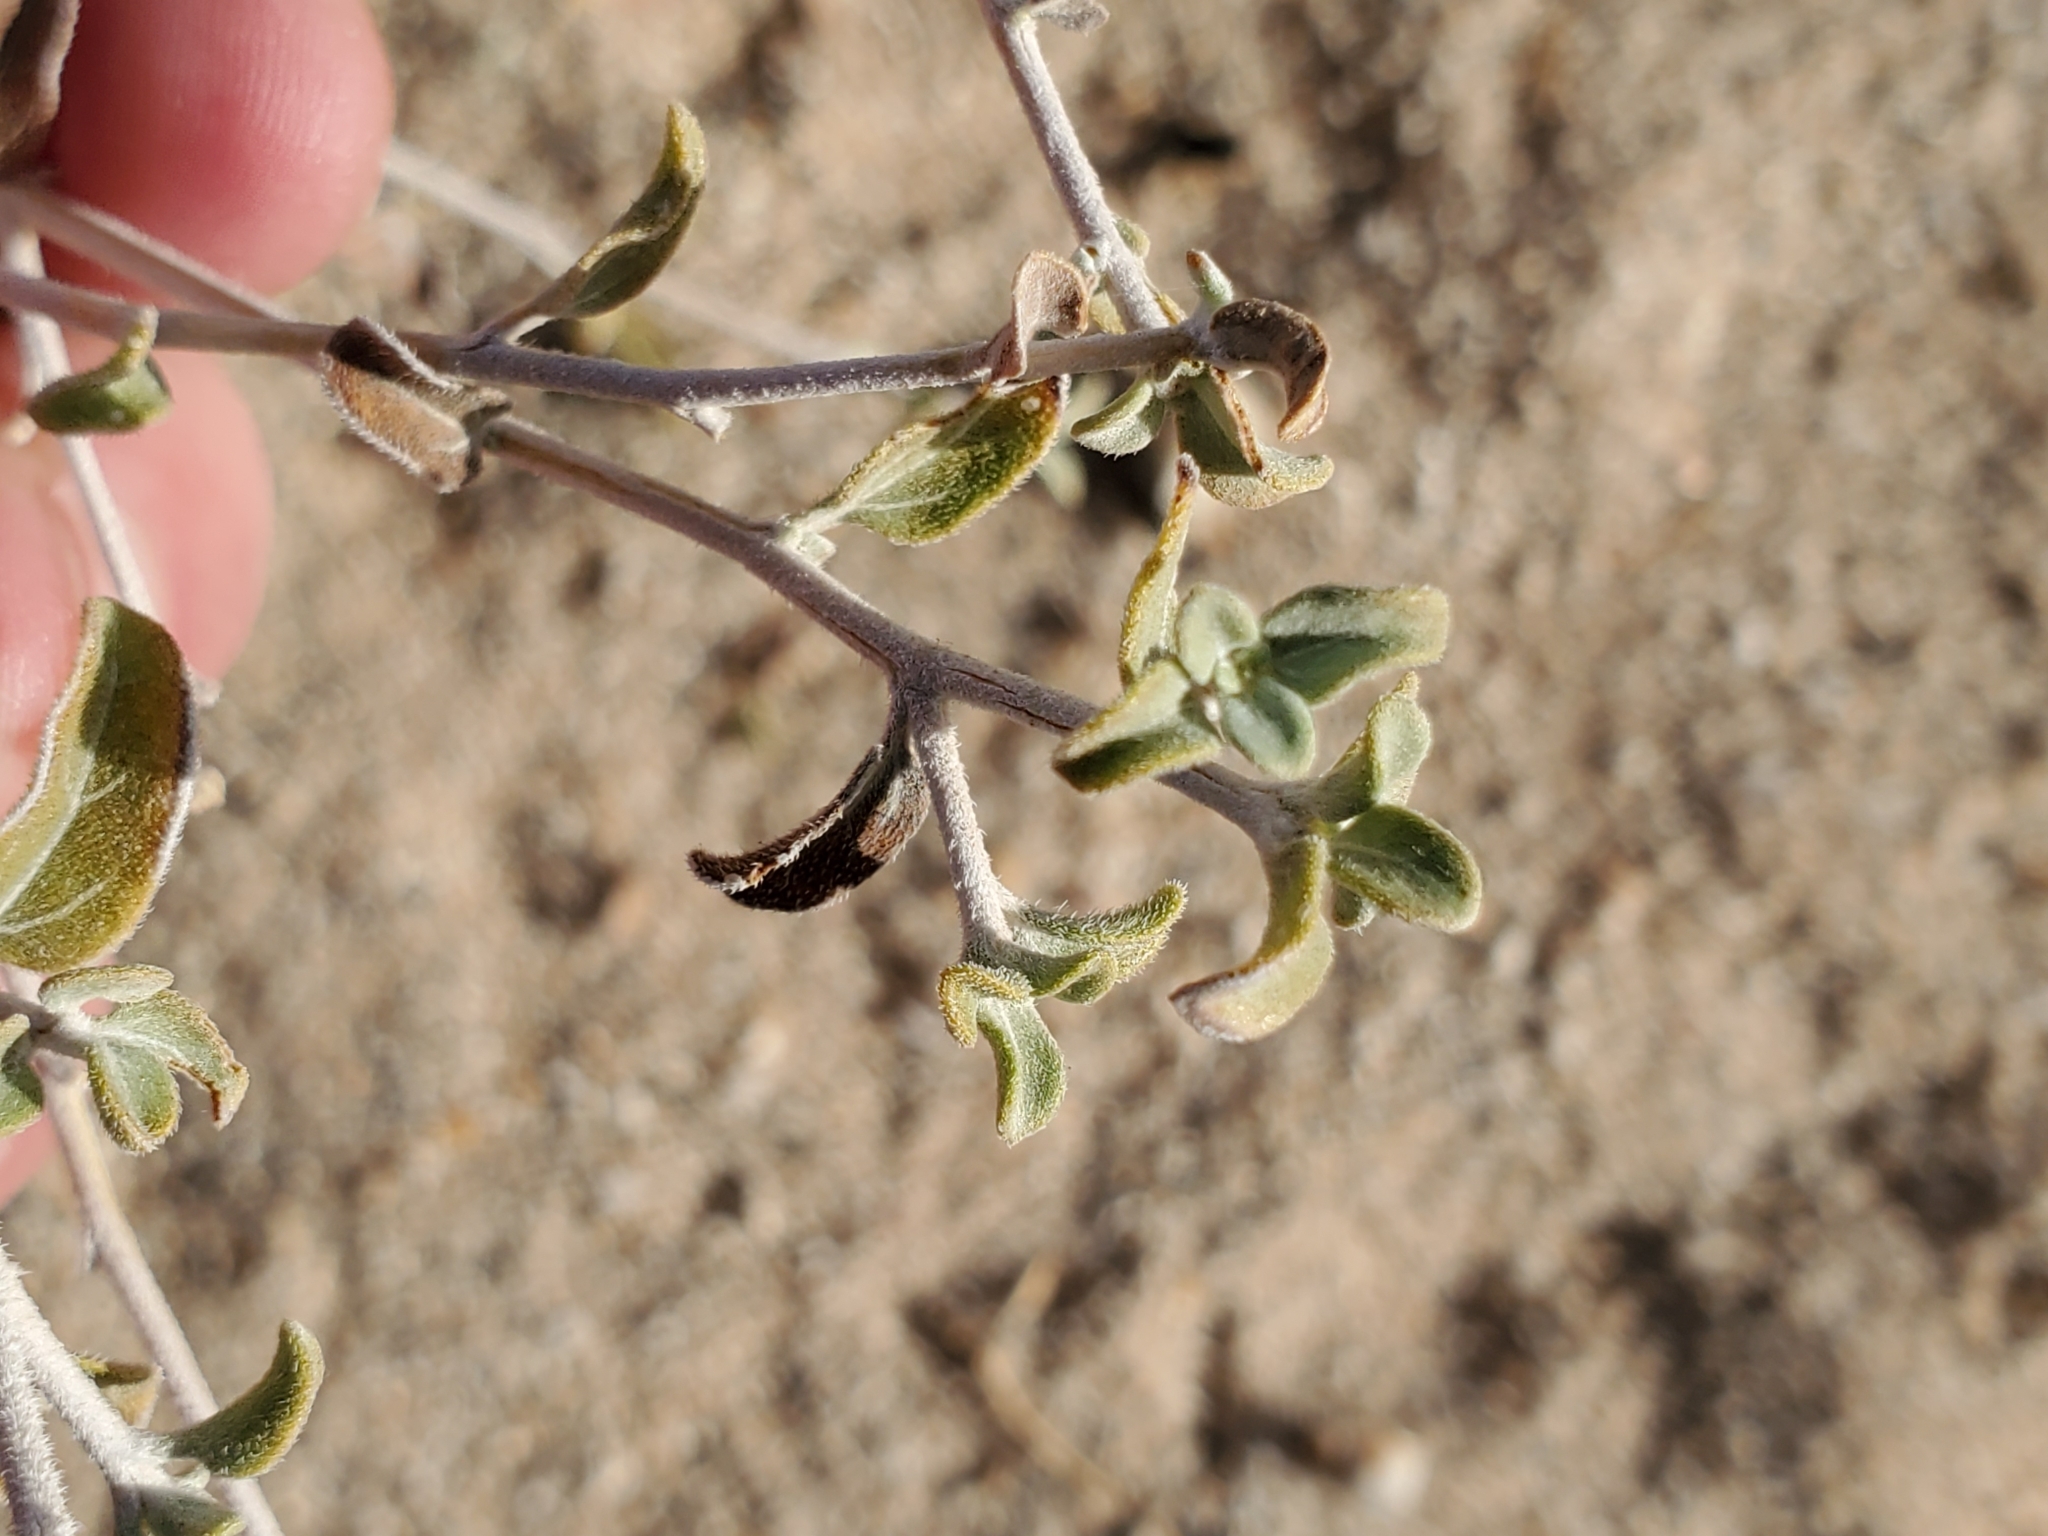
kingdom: Plantae
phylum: Tracheophyta
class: Magnoliopsida
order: Asterales
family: Asteraceae
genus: Encelia
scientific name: Encelia frutescens
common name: Bush encelia
